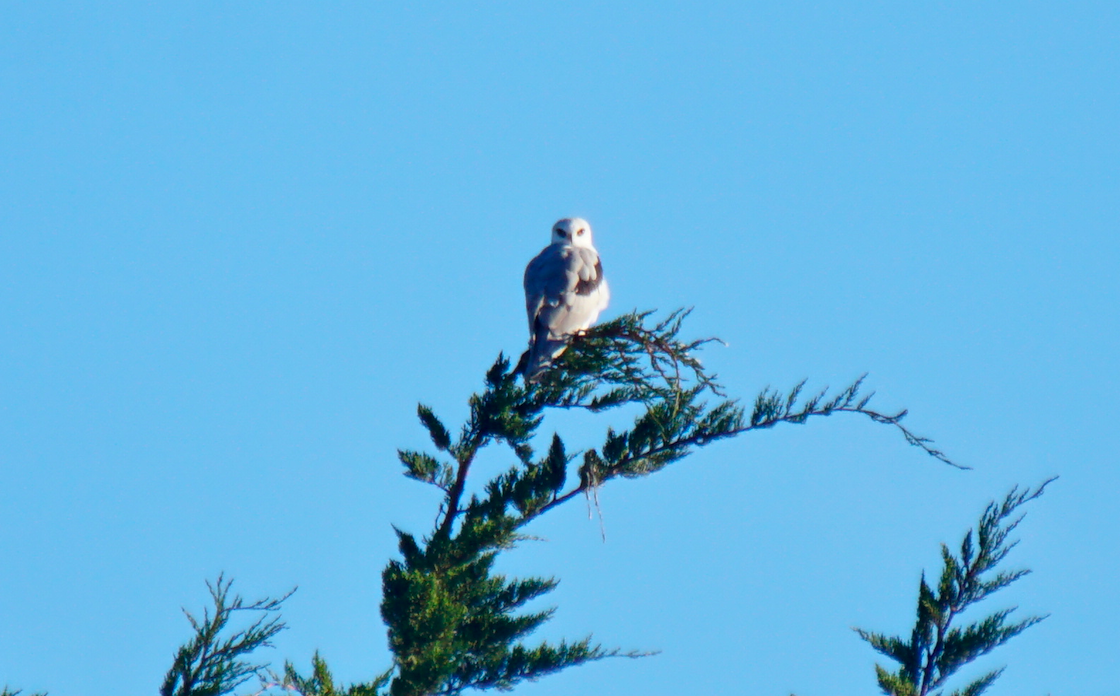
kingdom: Animalia
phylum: Chordata
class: Aves
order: Accipitriformes
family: Accipitridae
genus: Elanus
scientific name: Elanus leucurus
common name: White-tailed kite
